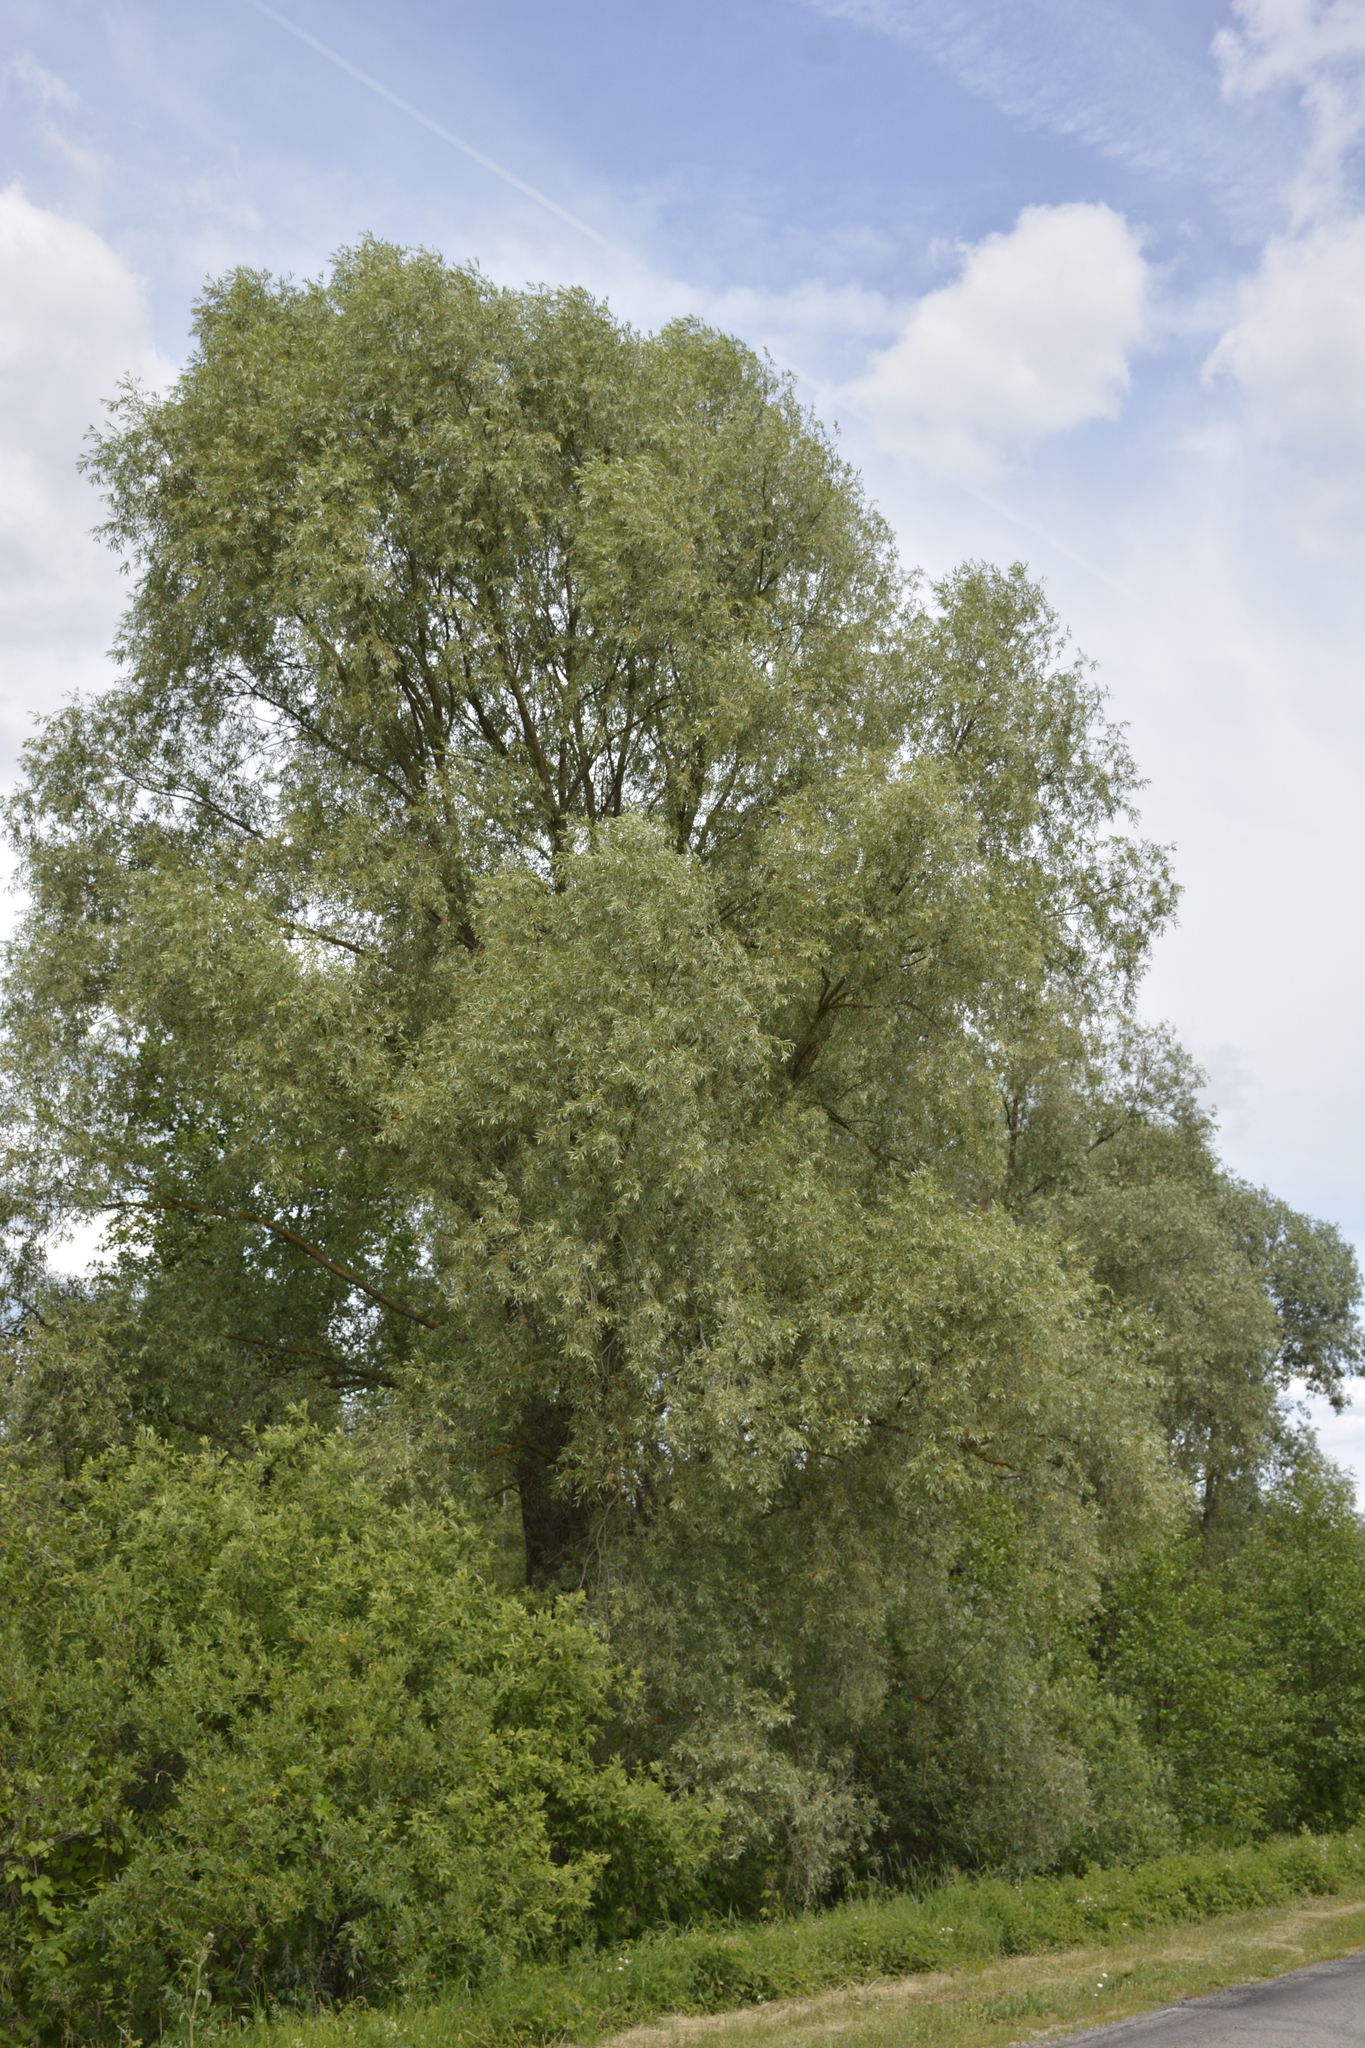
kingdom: Plantae
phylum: Tracheophyta
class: Magnoliopsida
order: Malpighiales
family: Salicaceae
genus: Salix
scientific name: Salix alba
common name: White willow
